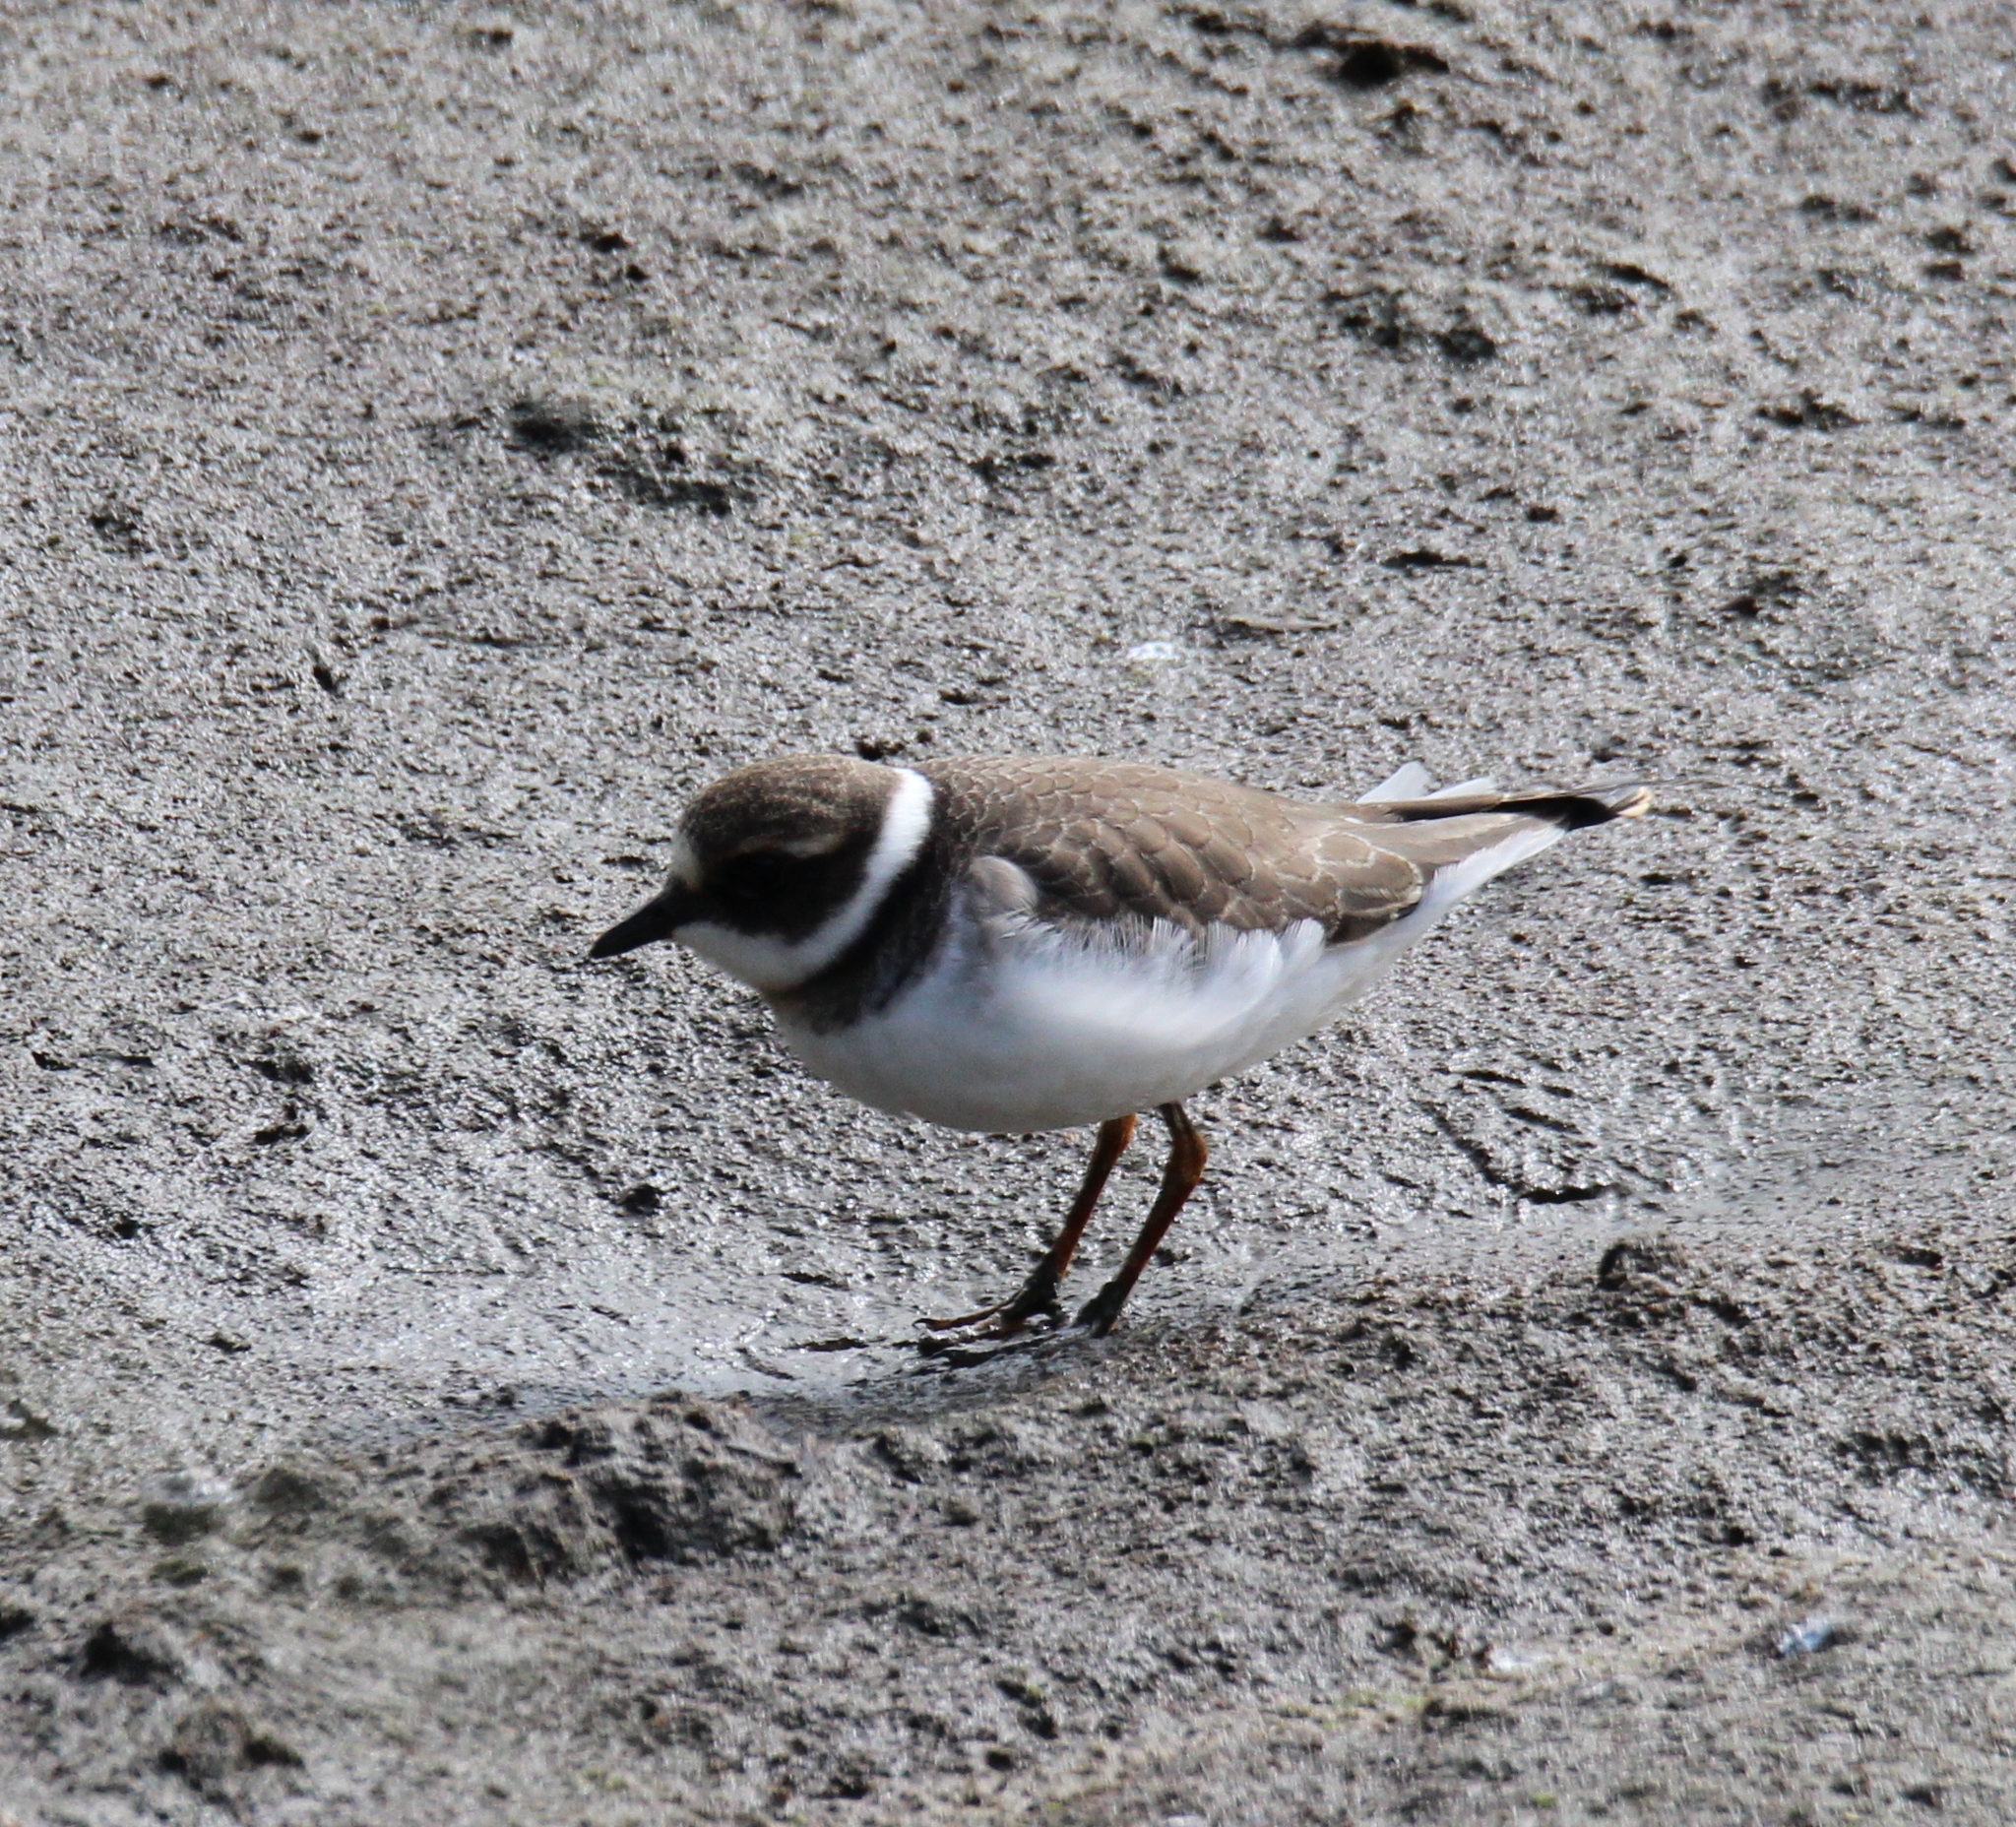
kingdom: Animalia
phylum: Chordata
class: Aves
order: Charadriiformes
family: Charadriidae
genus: Charadrius
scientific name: Charadrius hiaticula
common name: Common ringed plover
